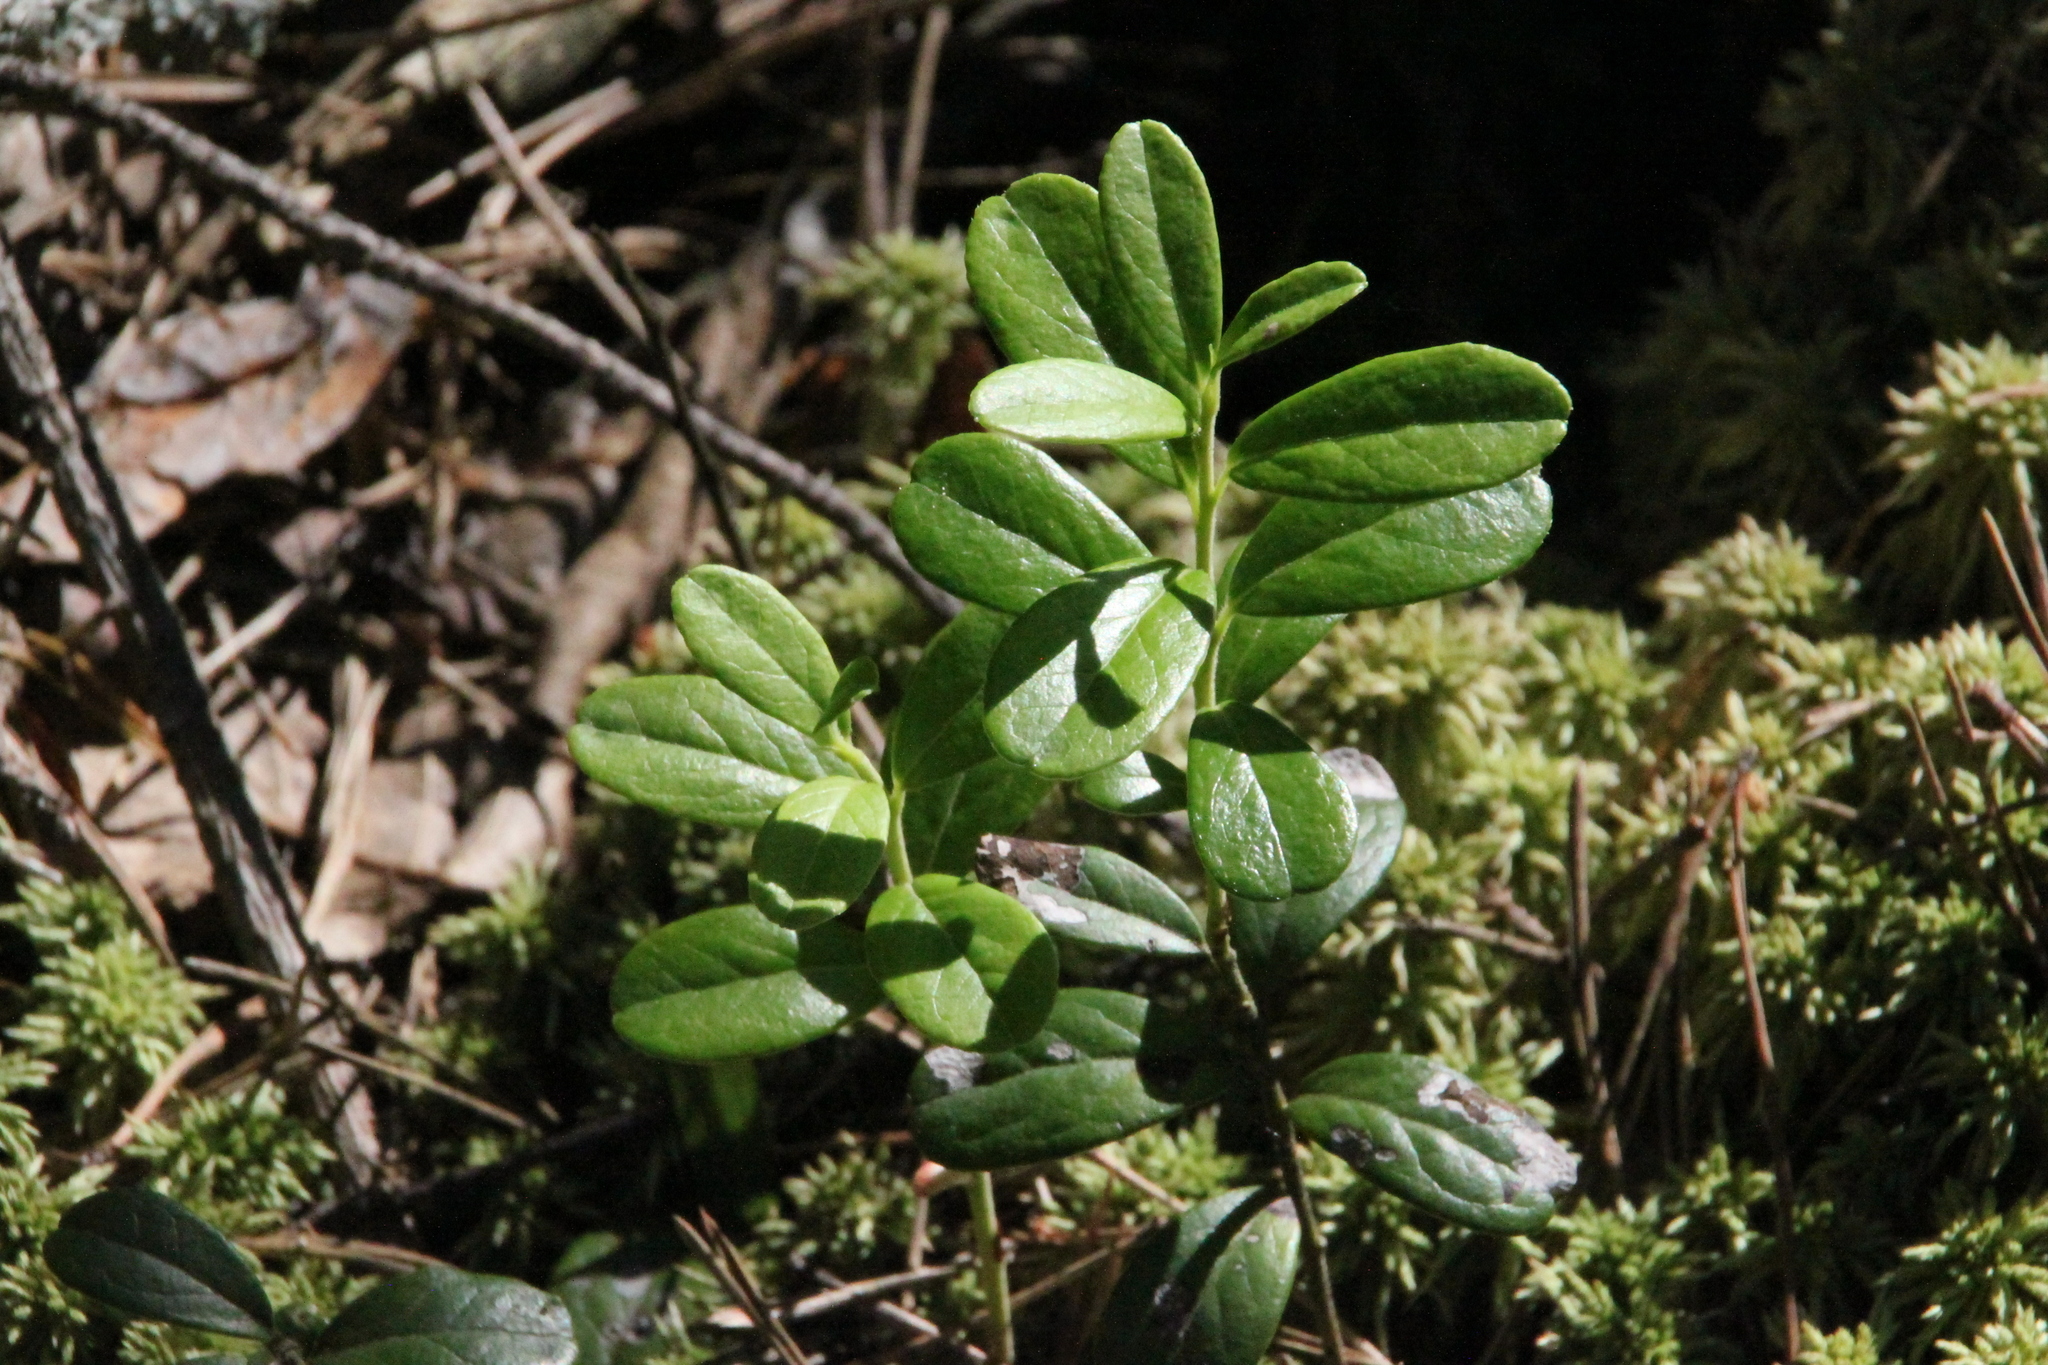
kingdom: Plantae
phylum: Tracheophyta
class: Magnoliopsida
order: Ericales
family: Ericaceae
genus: Vaccinium
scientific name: Vaccinium vitis-idaea
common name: Cowberry
